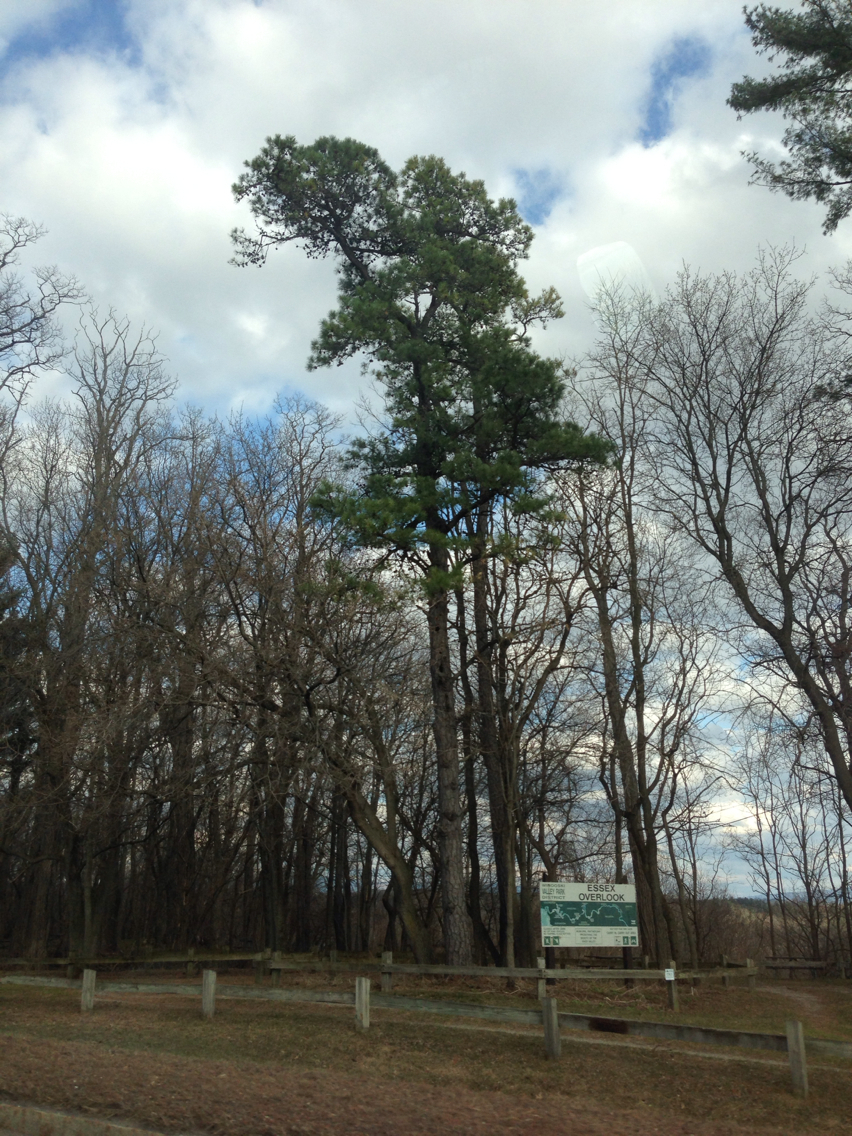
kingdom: Plantae
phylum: Tracheophyta
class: Pinopsida
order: Pinales
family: Pinaceae
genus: Pinus
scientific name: Pinus rigida
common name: Pitch pine
